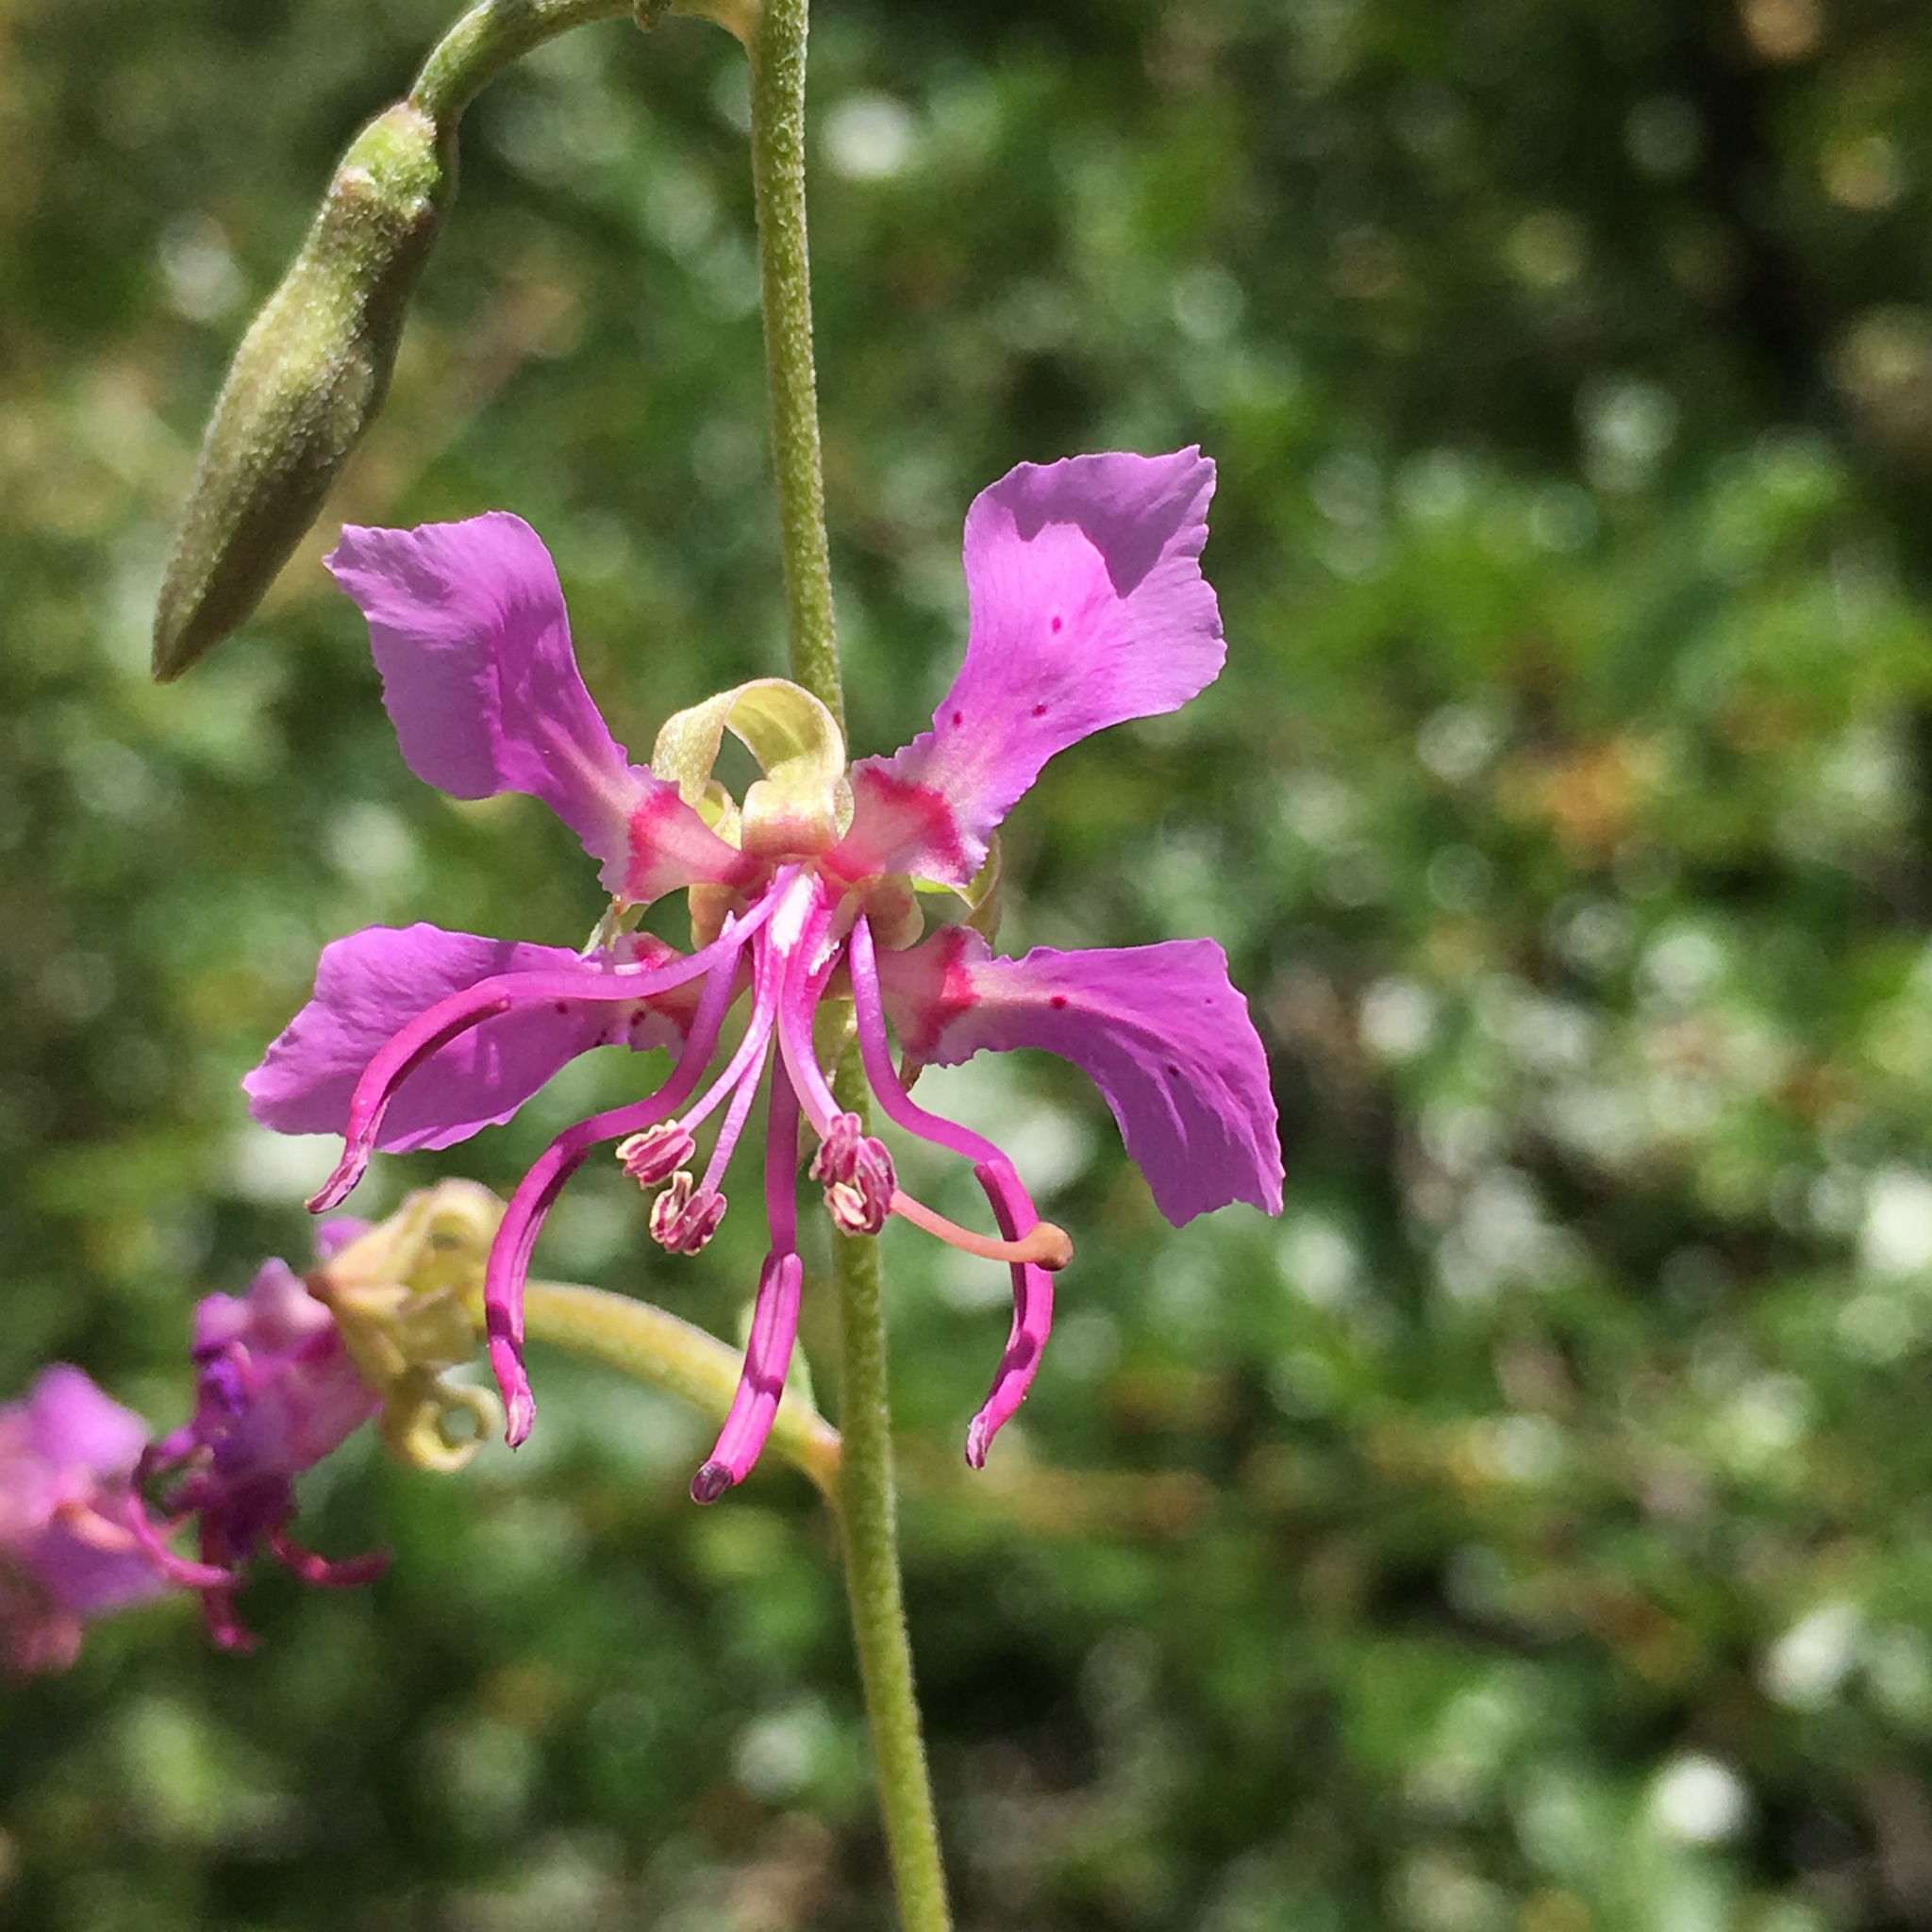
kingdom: Plantae
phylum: Tracheophyta
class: Magnoliopsida
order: Myrtales
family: Onagraceae
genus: Clarkia
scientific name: Clarkia borealis
